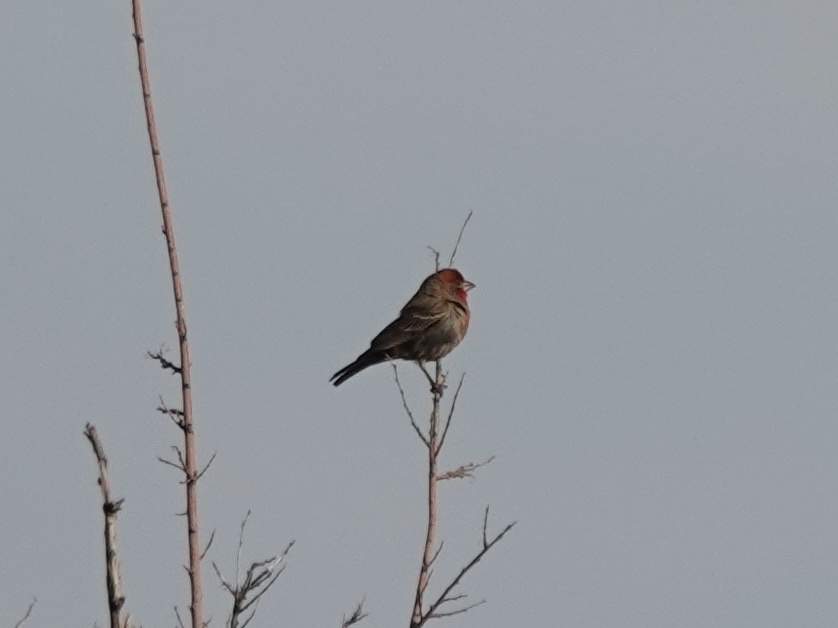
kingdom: Animalia
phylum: Chordata
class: Aves
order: Passeriformes
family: Fringillidae
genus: Haemorhous
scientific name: Haemorhous mexicanus
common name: House finch
